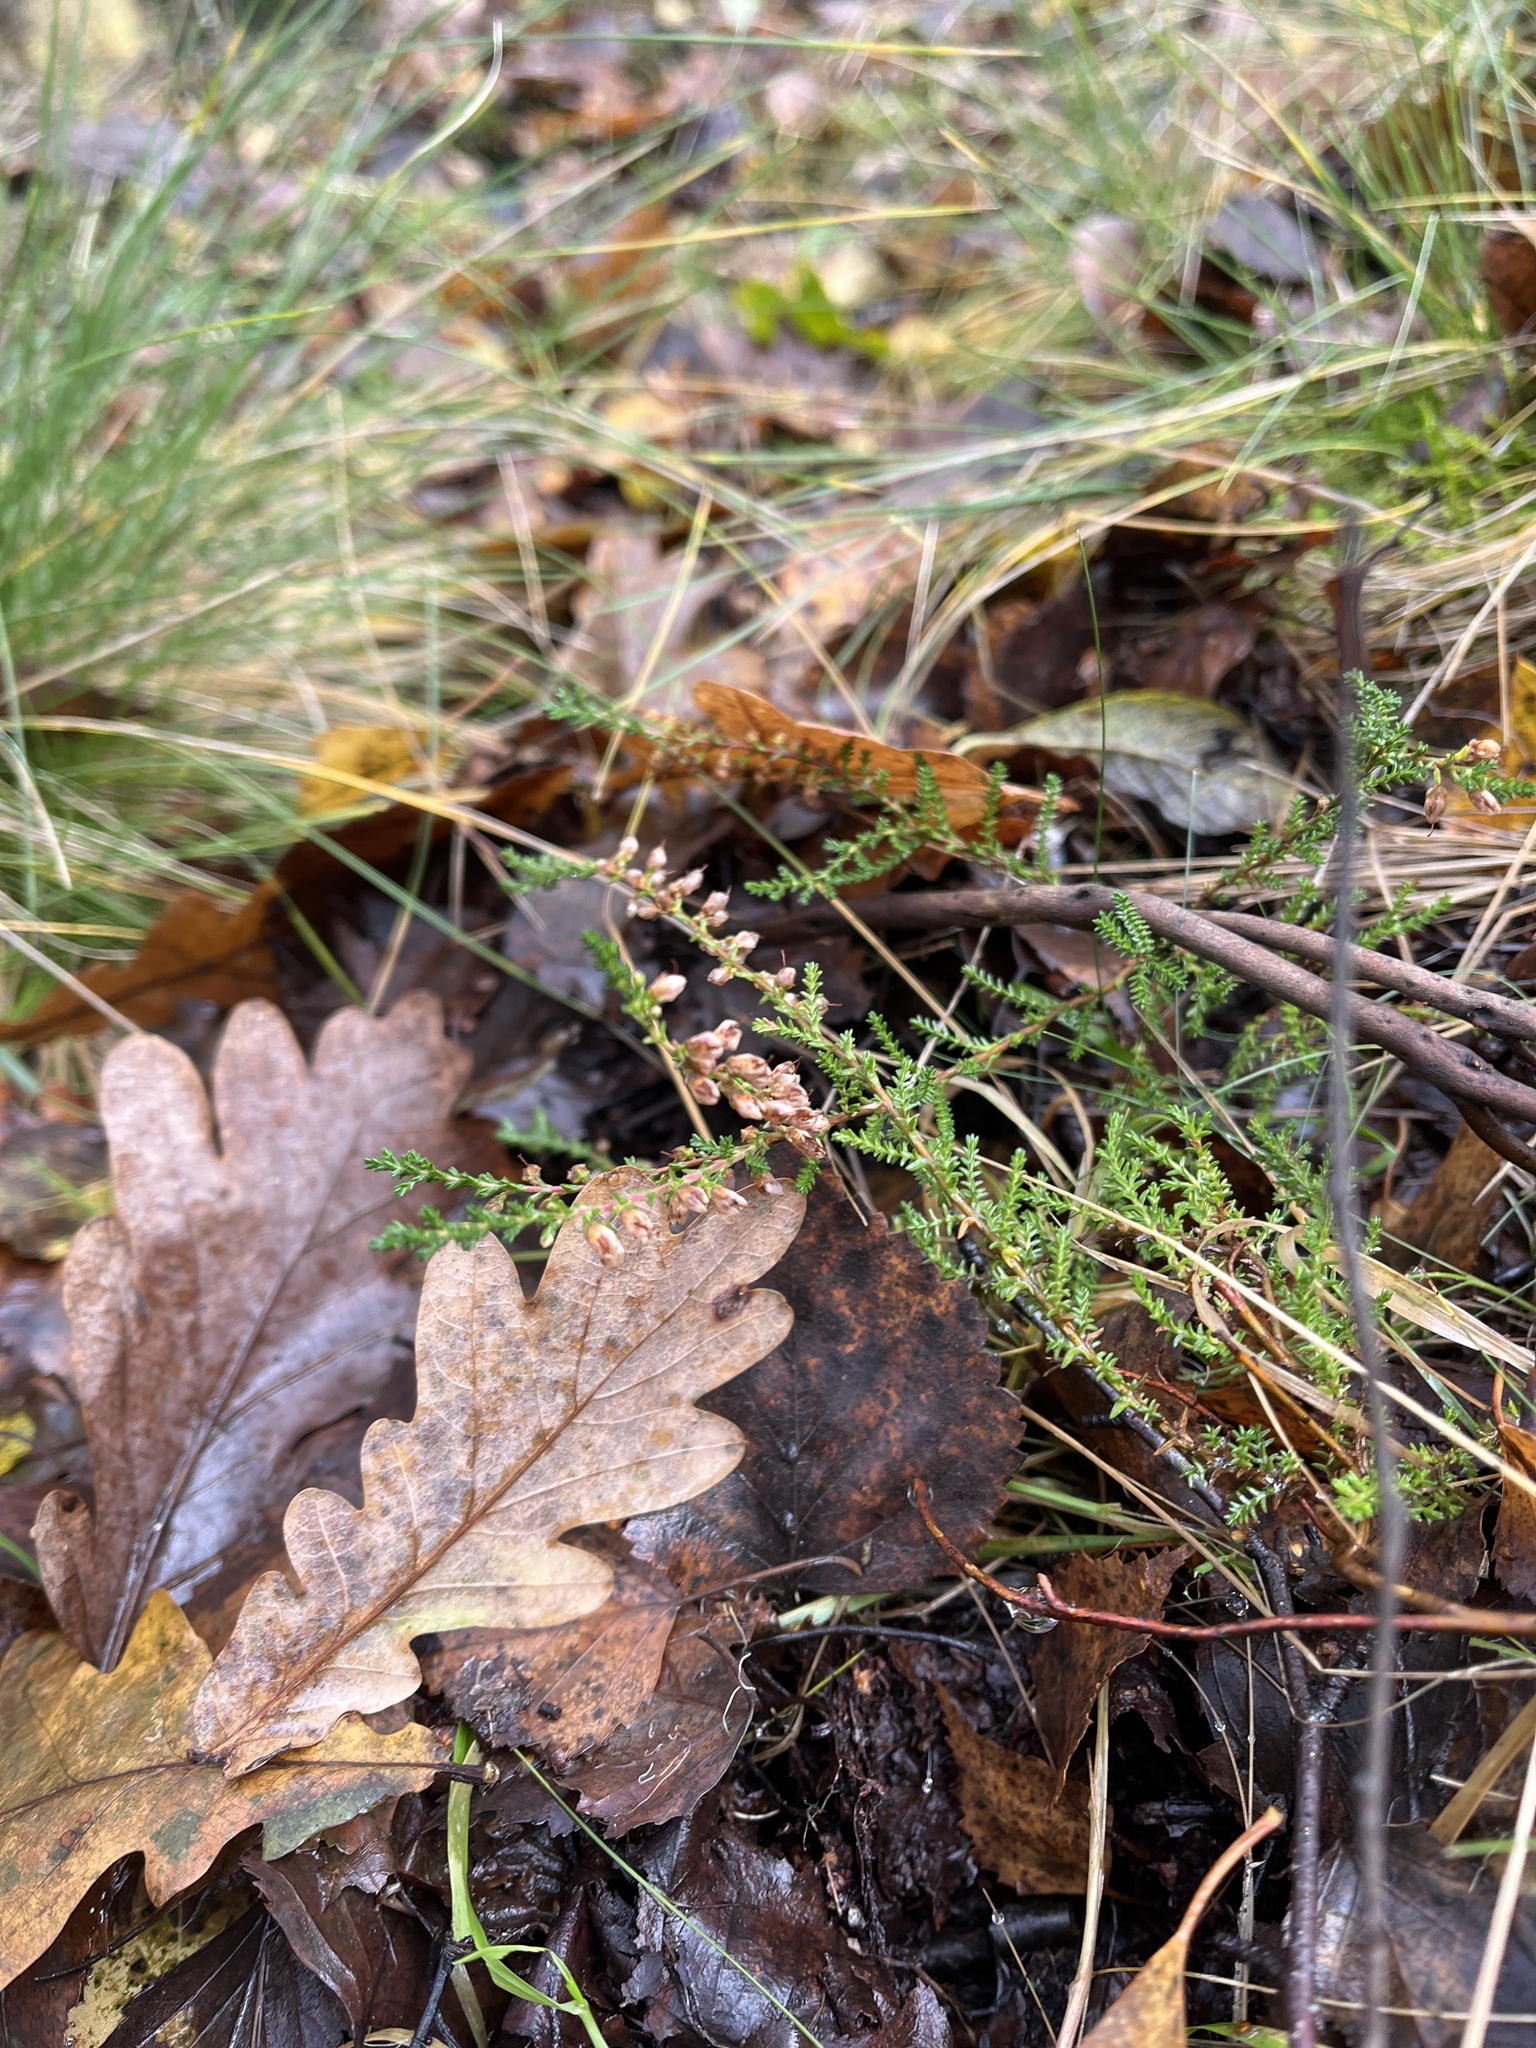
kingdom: Plantae
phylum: Tracheophyta
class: Magnoliopsida
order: Ericales
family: Ericaceae
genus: Calluna
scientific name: Calluna vulgaris
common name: Heather
